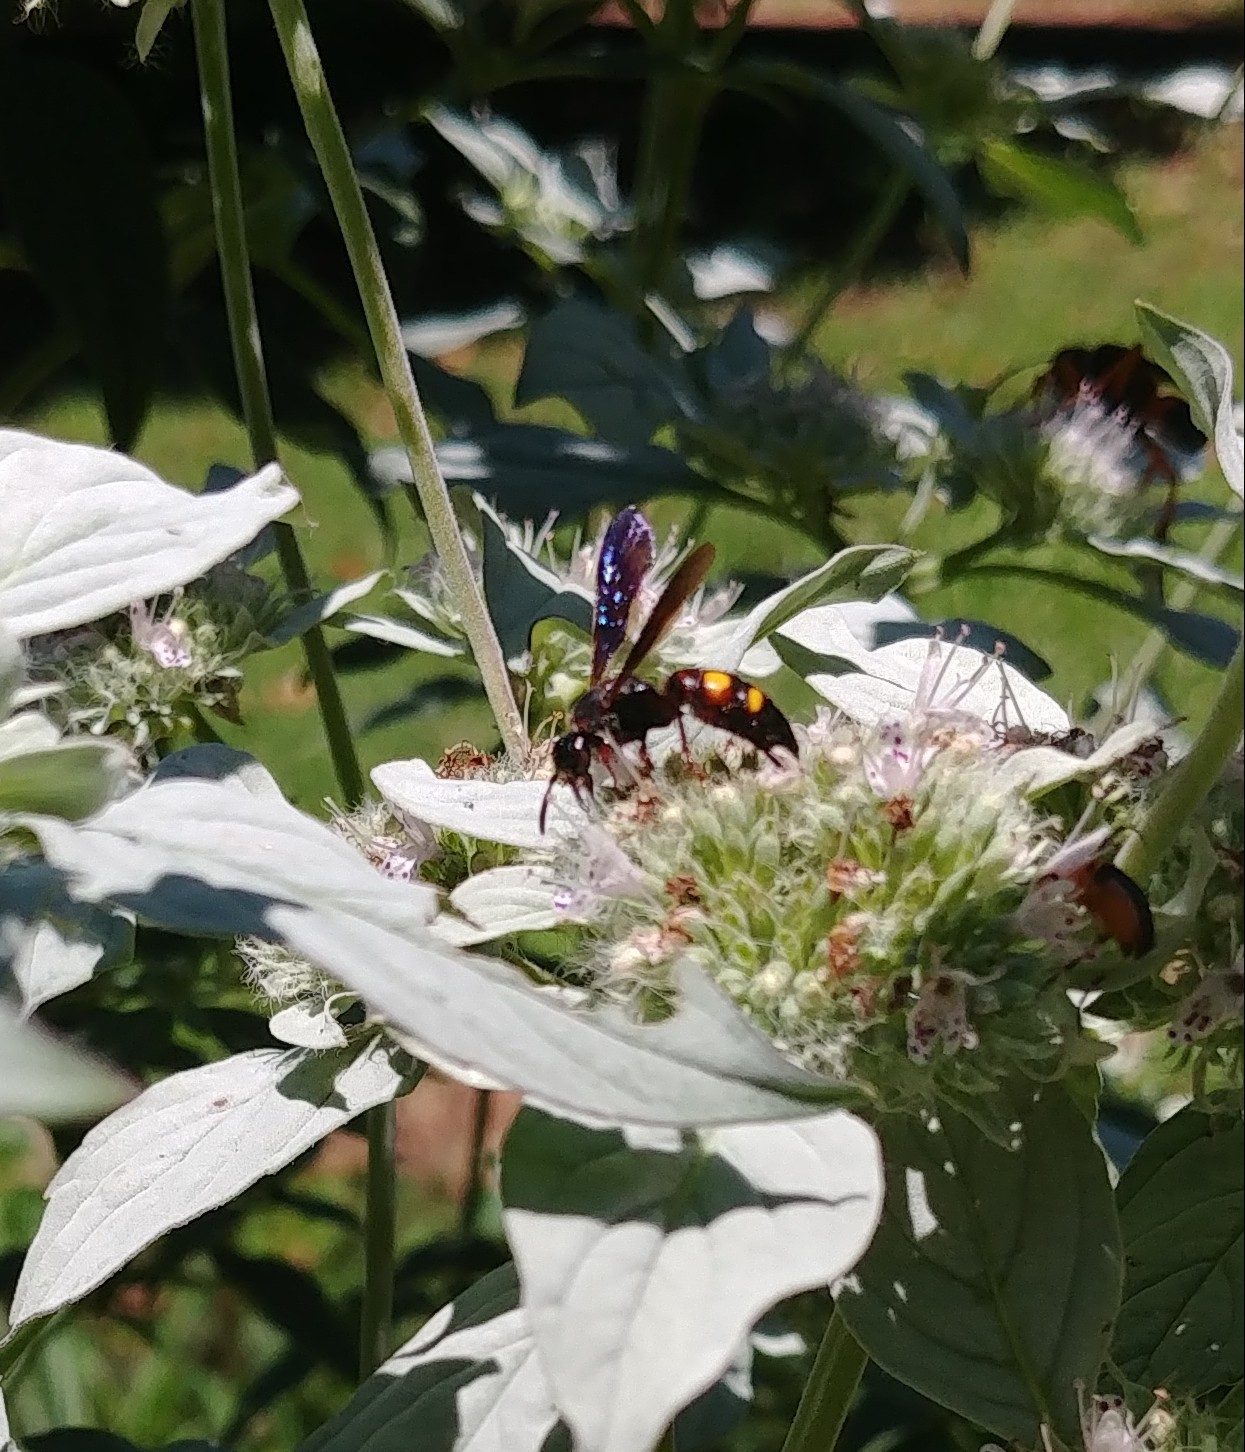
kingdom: Animalia
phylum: Arthropoda
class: Insecta
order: Hymenoptera
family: Scoliidae
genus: Scolia
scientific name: Scolia nobilitata
